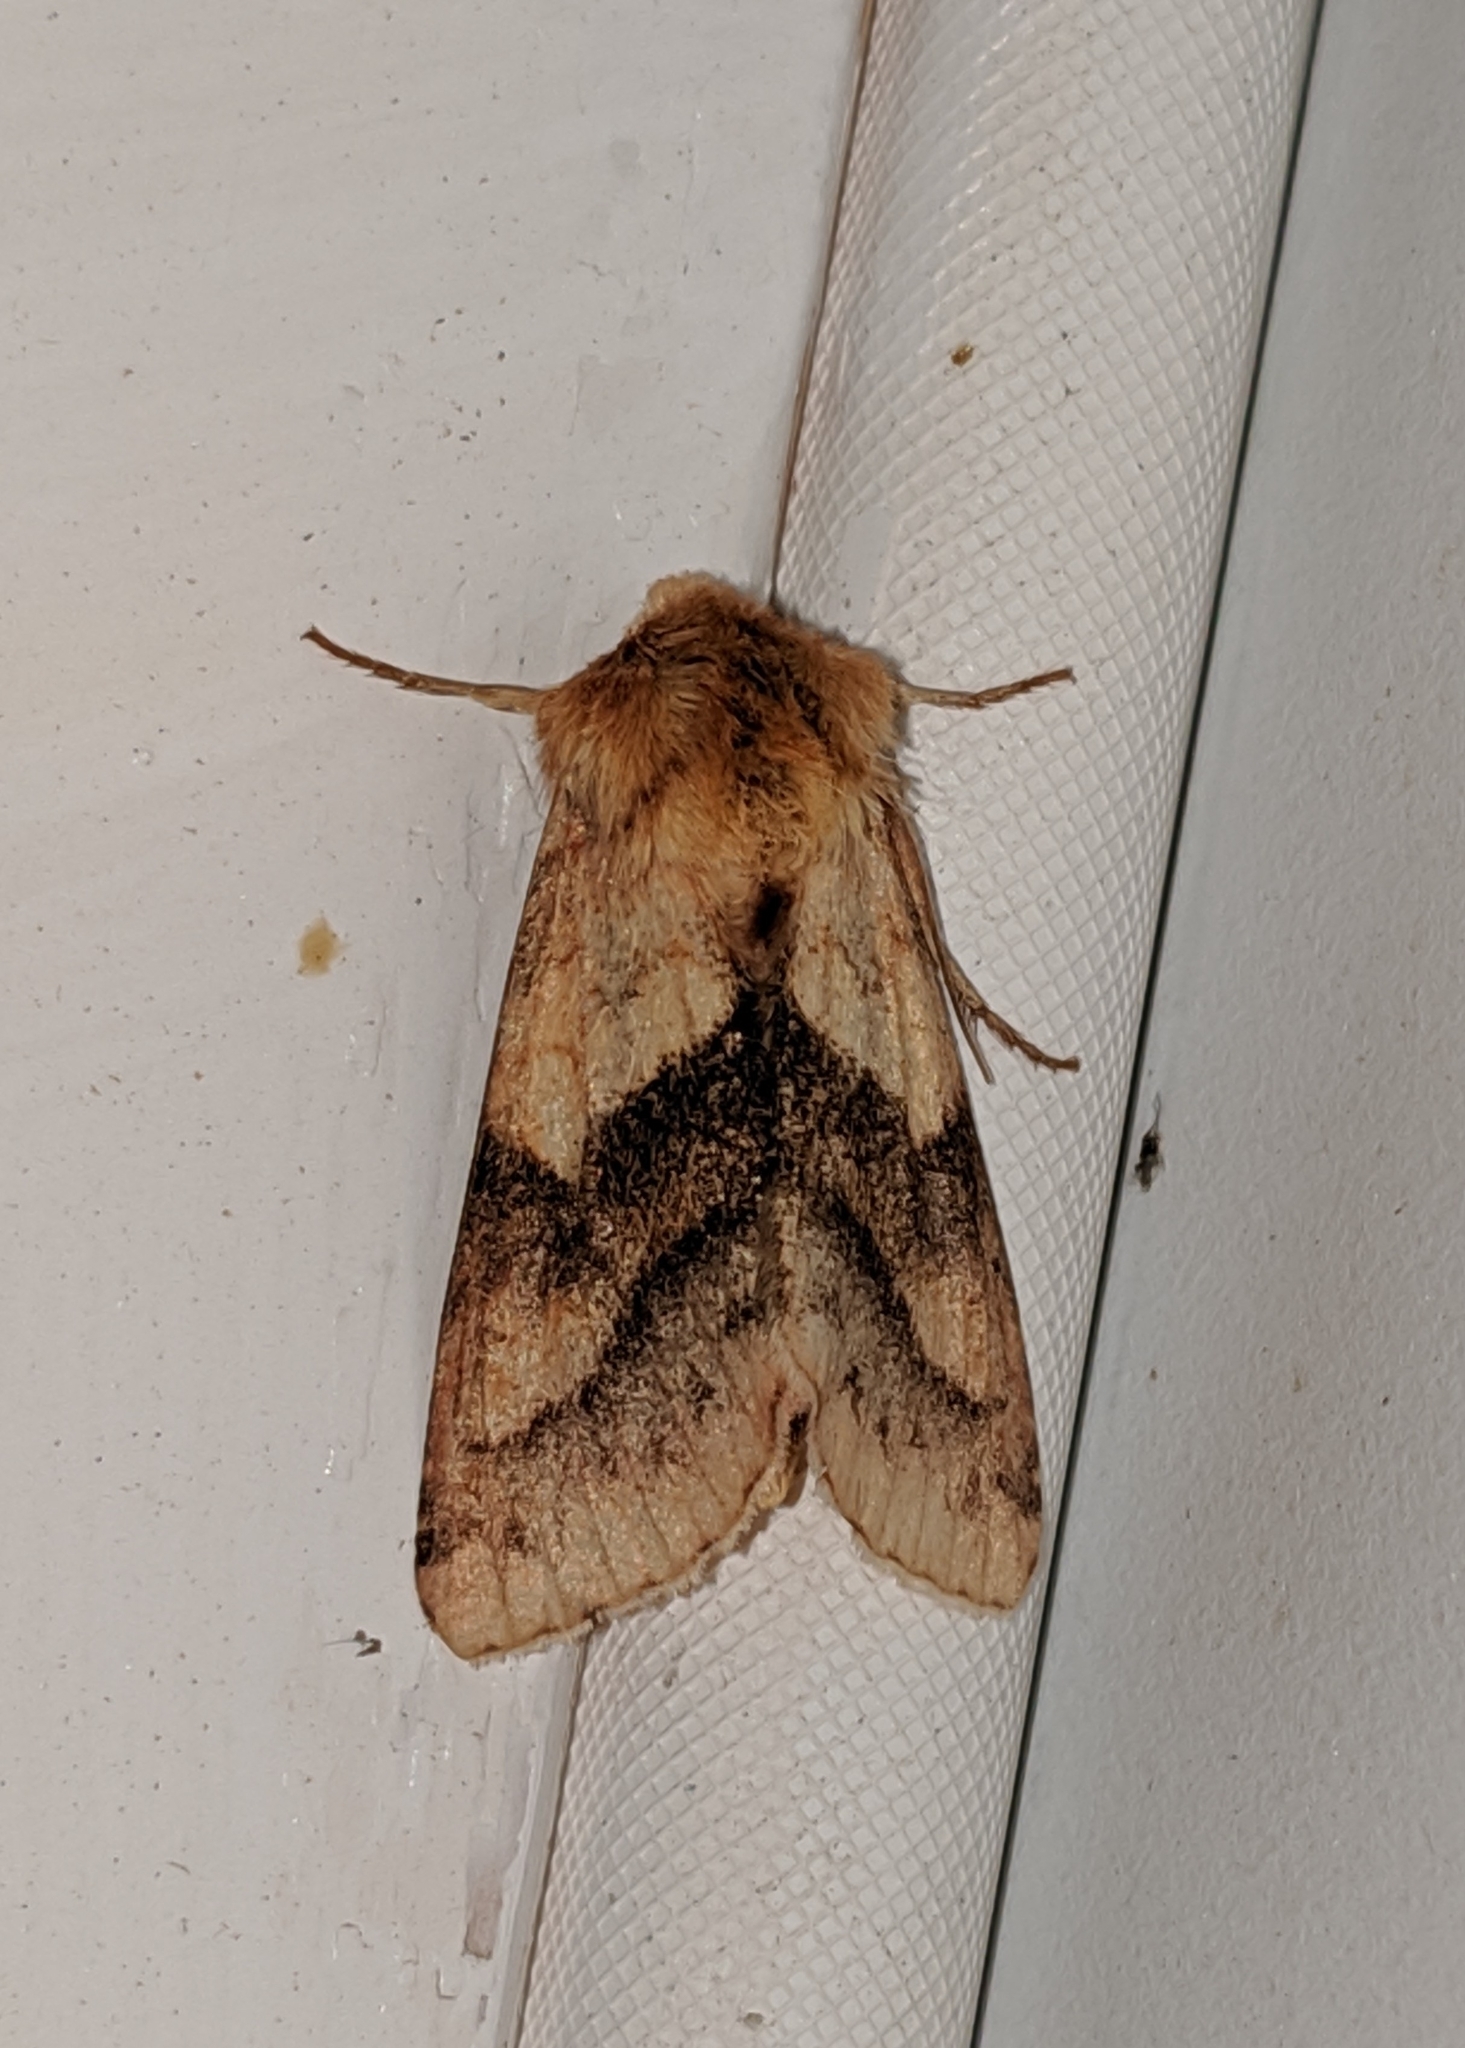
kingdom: Animalia
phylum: Arthropoda
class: Insecta
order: Lepidoptera
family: Noctuidae
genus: Pyrrhia
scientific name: Pyrrhia exprimens
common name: Purple-lined sallow
